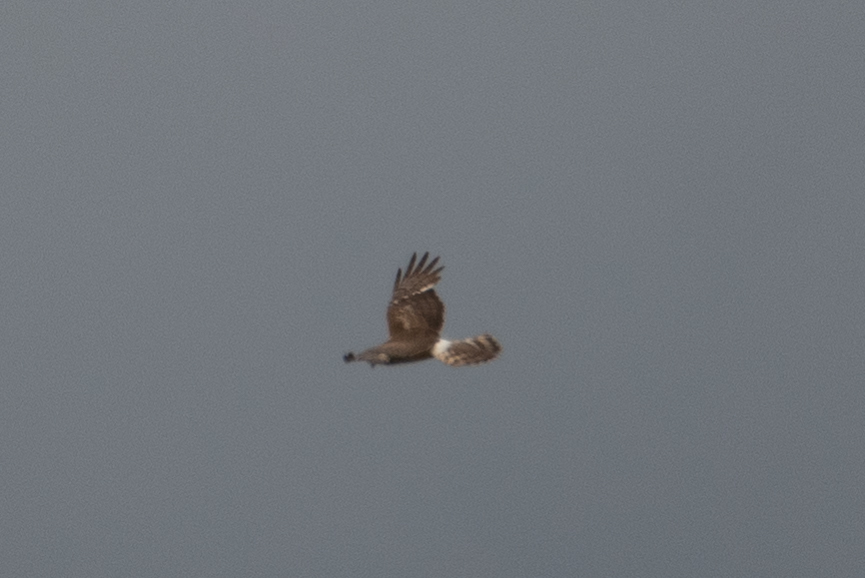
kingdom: Animalia
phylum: Chordata
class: Aves
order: Accipitriformes
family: Accipitridae
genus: Circus
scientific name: Circus cyaneus
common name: Hen harrier
